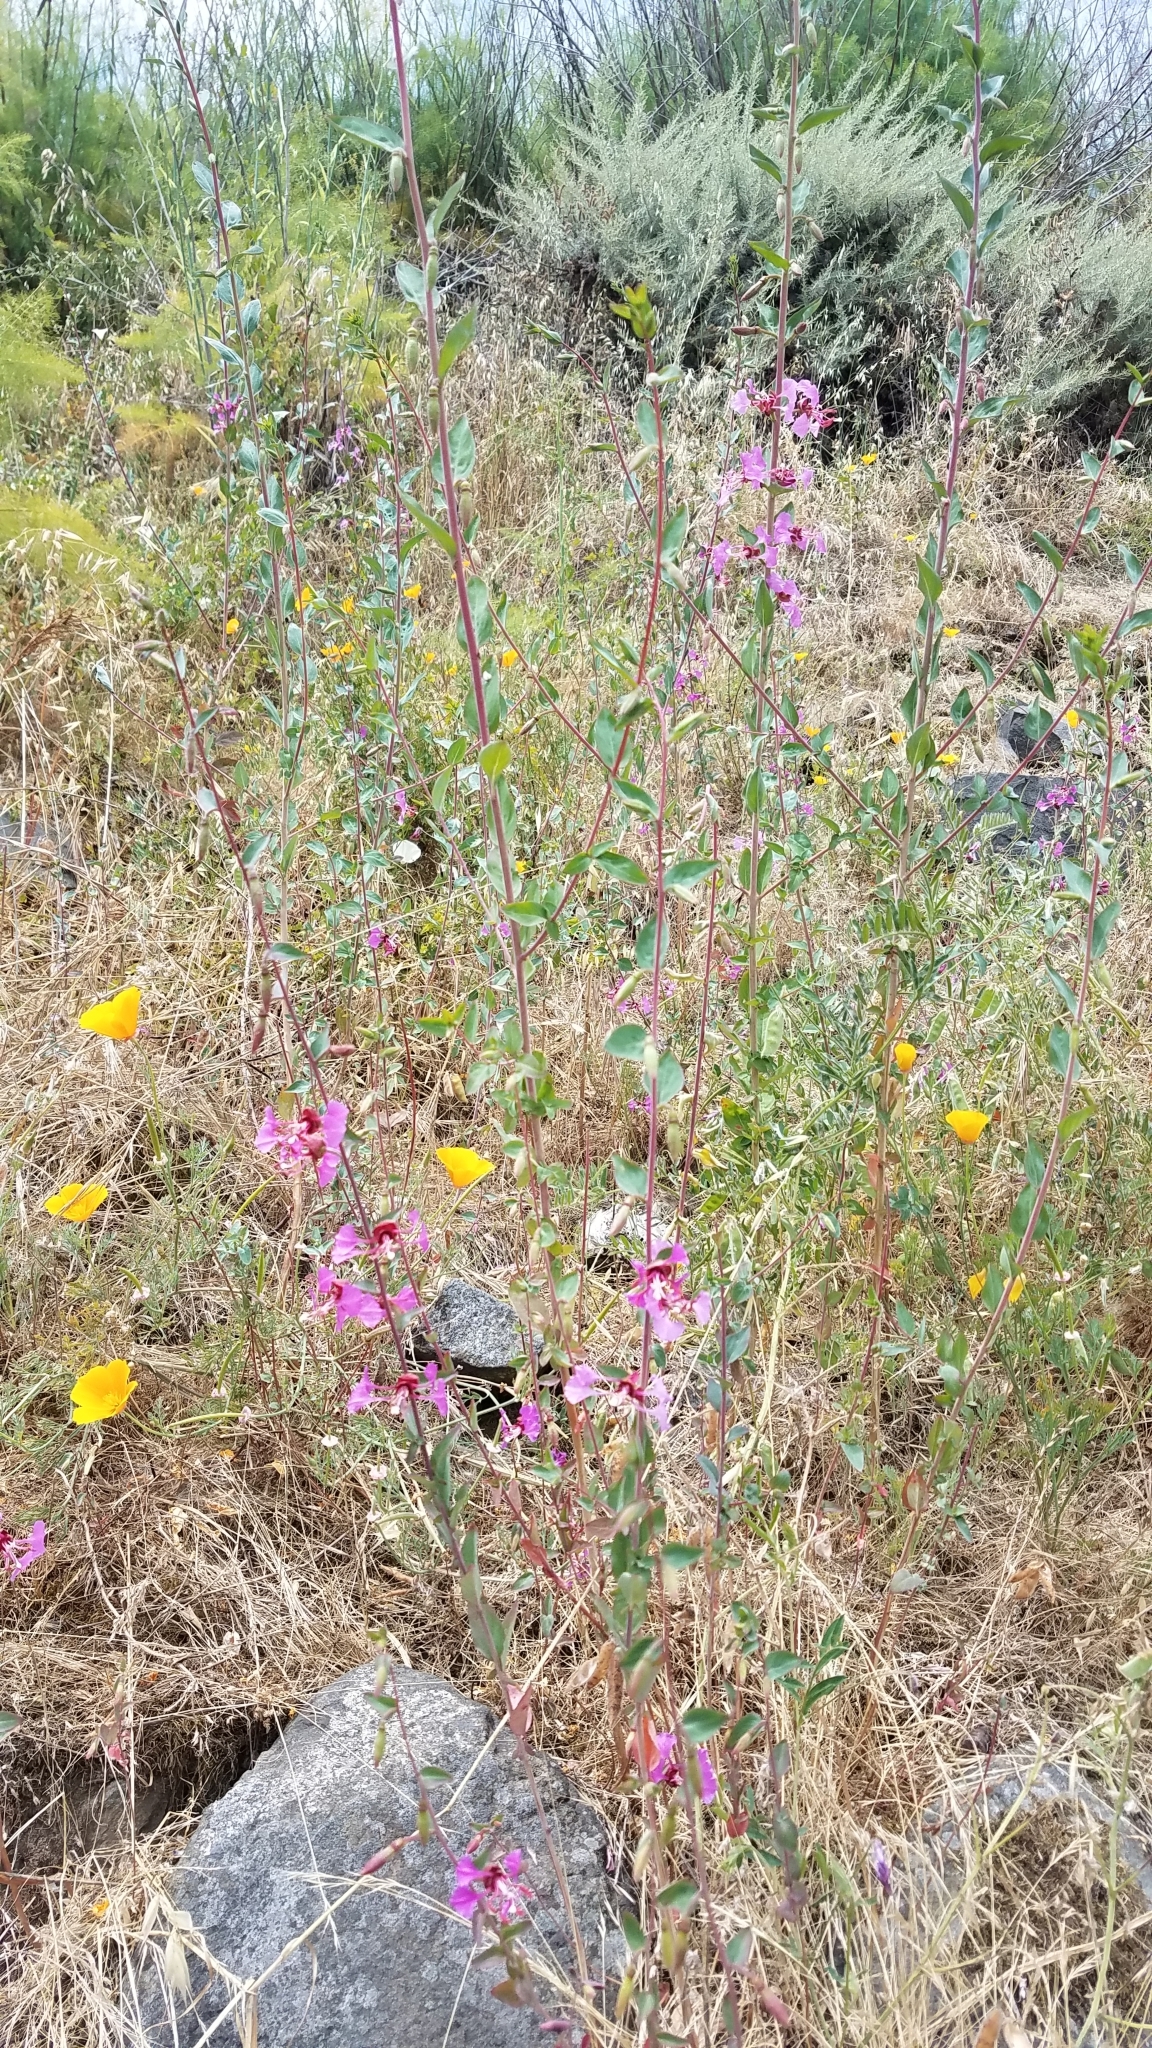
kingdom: Plantae
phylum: Tracheophyta
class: Magnoliopsida
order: Myrtales
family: Onagraceae
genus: Clarkia
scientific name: Clarkia unguiculata
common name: Clarkia
